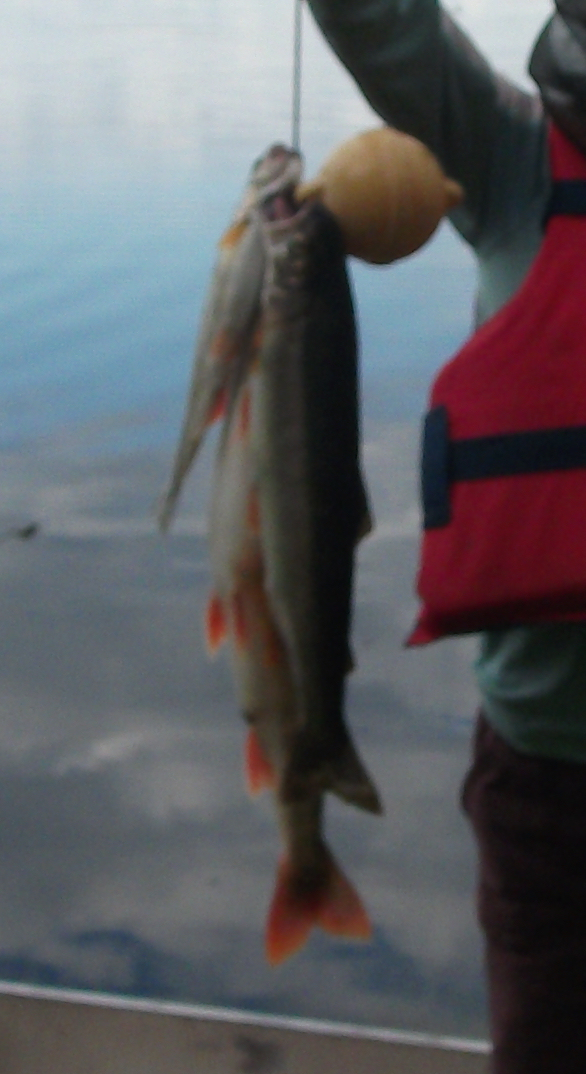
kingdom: Animalia
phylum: Chordata
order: Salmoniformes
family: Salmonidae
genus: Oncorhynchus
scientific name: Oncorhynchus mykiss
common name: Rainbow trout
